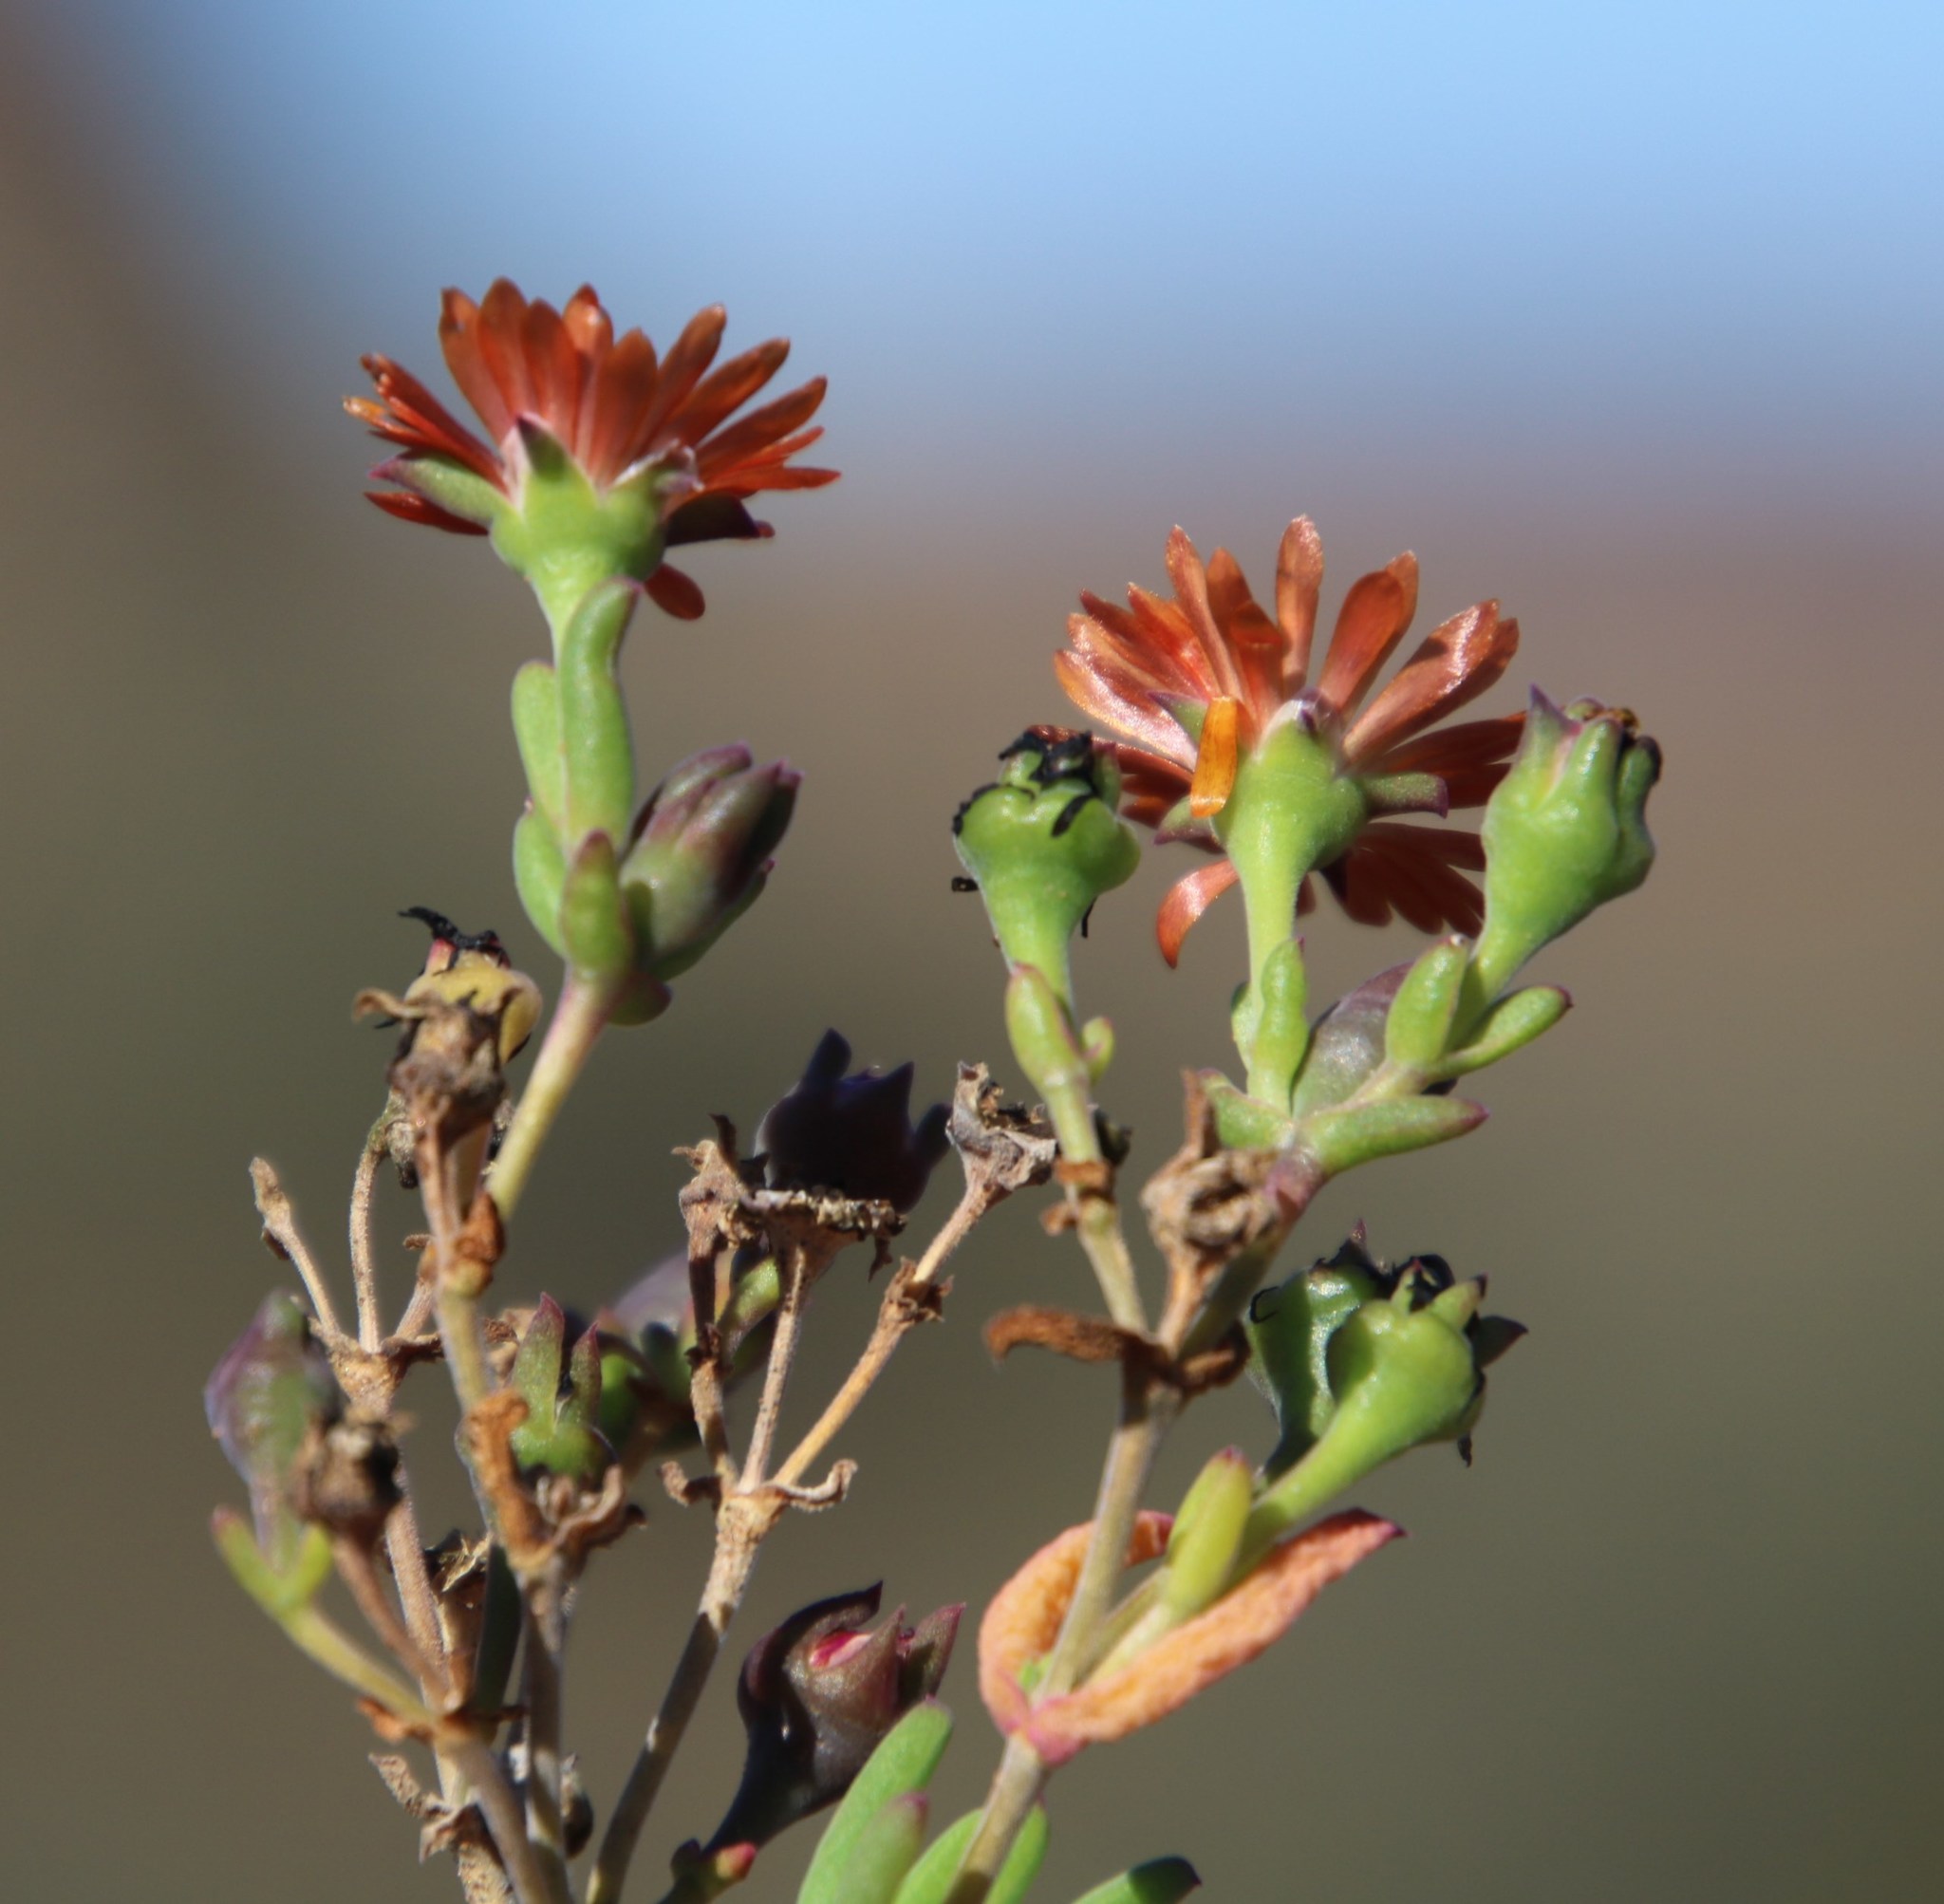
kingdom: Plantae
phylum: Tracheophyta
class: Magnoliopsida
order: Caryophyllales
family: Aizoaceae
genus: Delosperma
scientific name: Delosperma ornatulum
